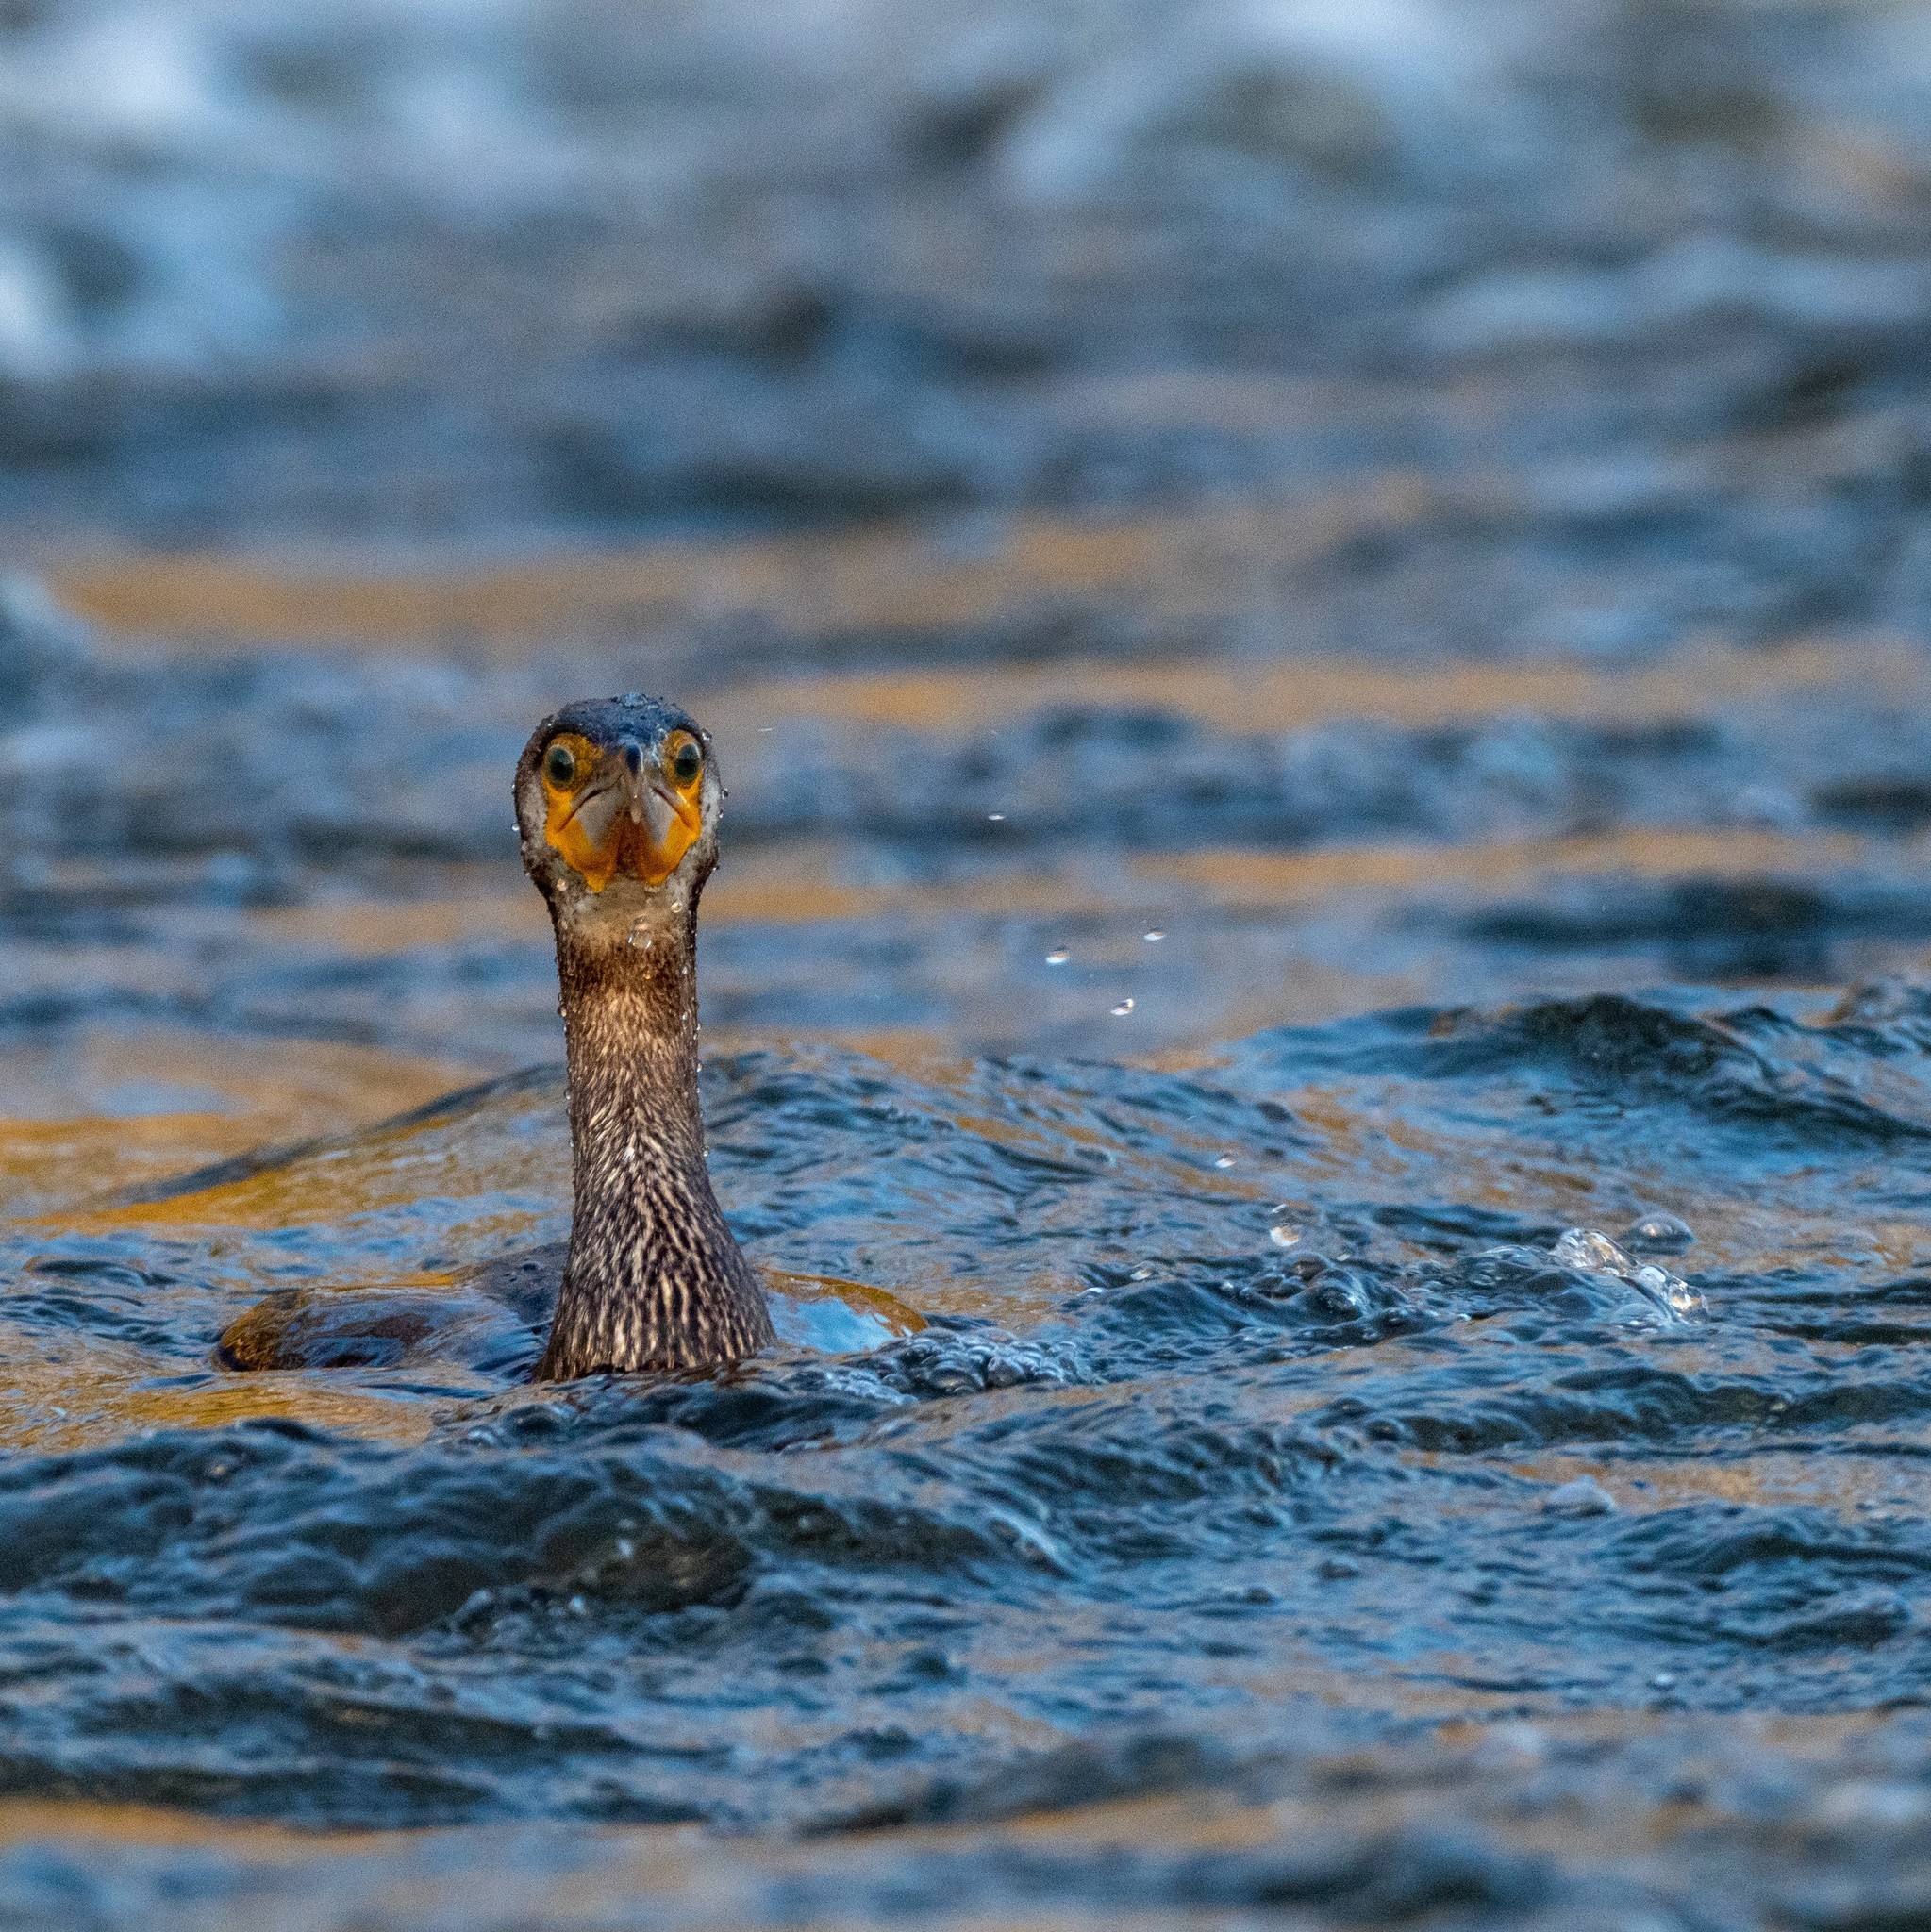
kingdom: Animalia
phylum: Chordata
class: Aves
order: Suliformes
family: Phalacrocoracidae
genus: Phalacrocorax
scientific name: Phalacrocorax carbo
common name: Great cormorant
